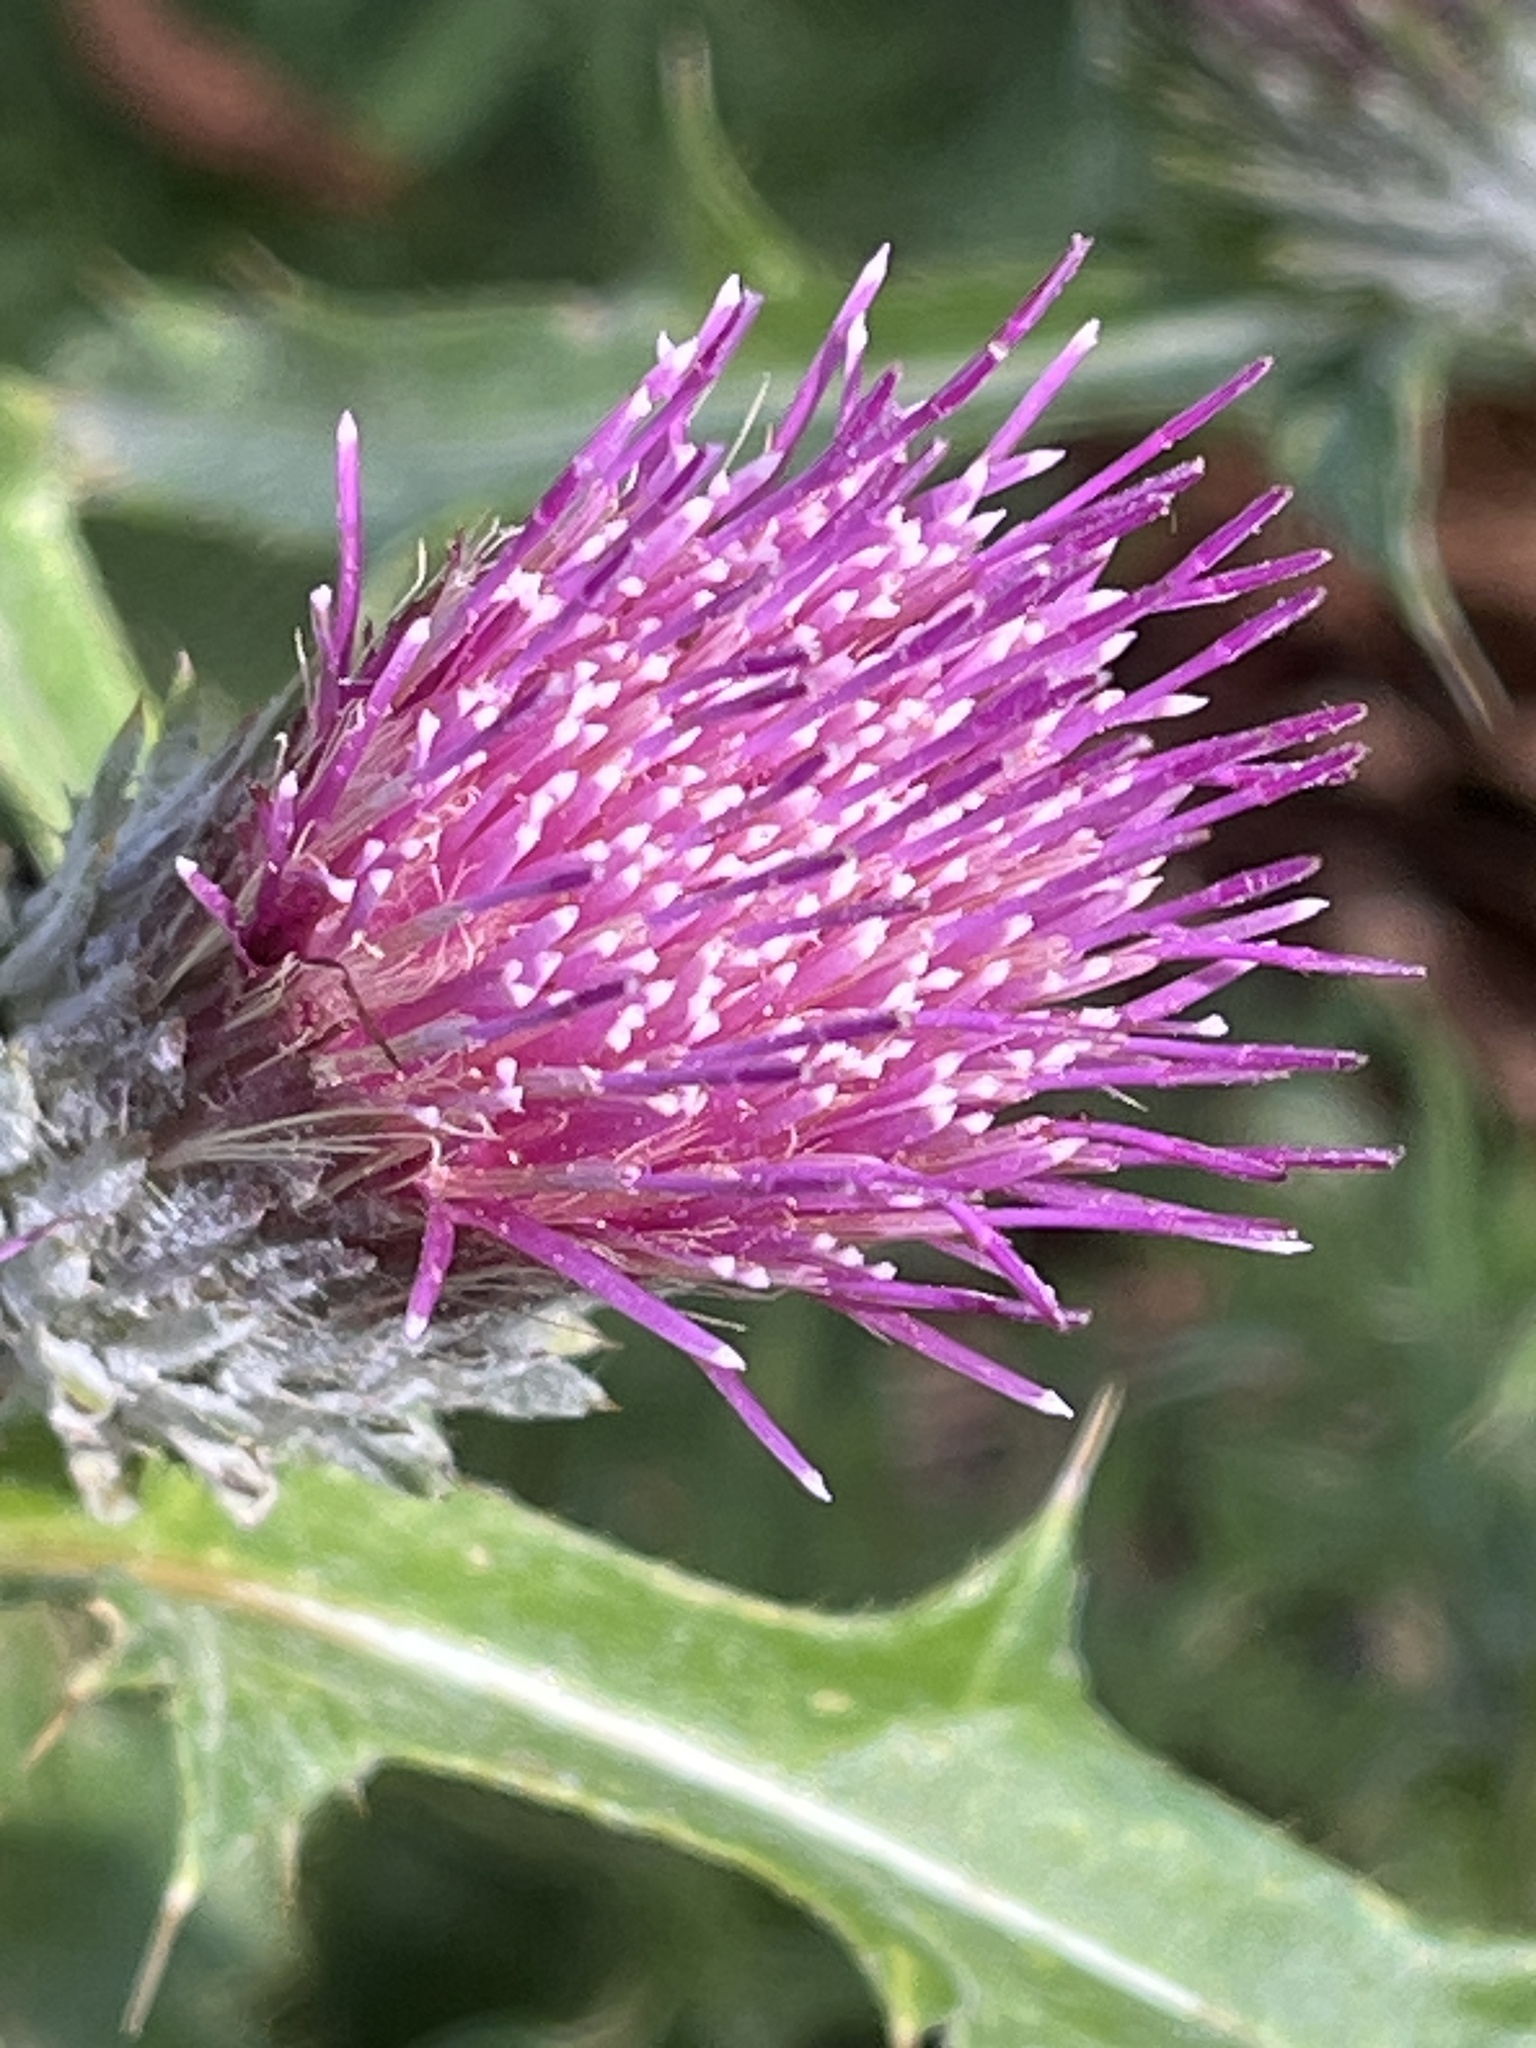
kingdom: Plantae
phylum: Tracheophyta
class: Magnoliopsida
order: Asterales
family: Asteraceae
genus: Cirsium
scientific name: Cirsium andersonii
